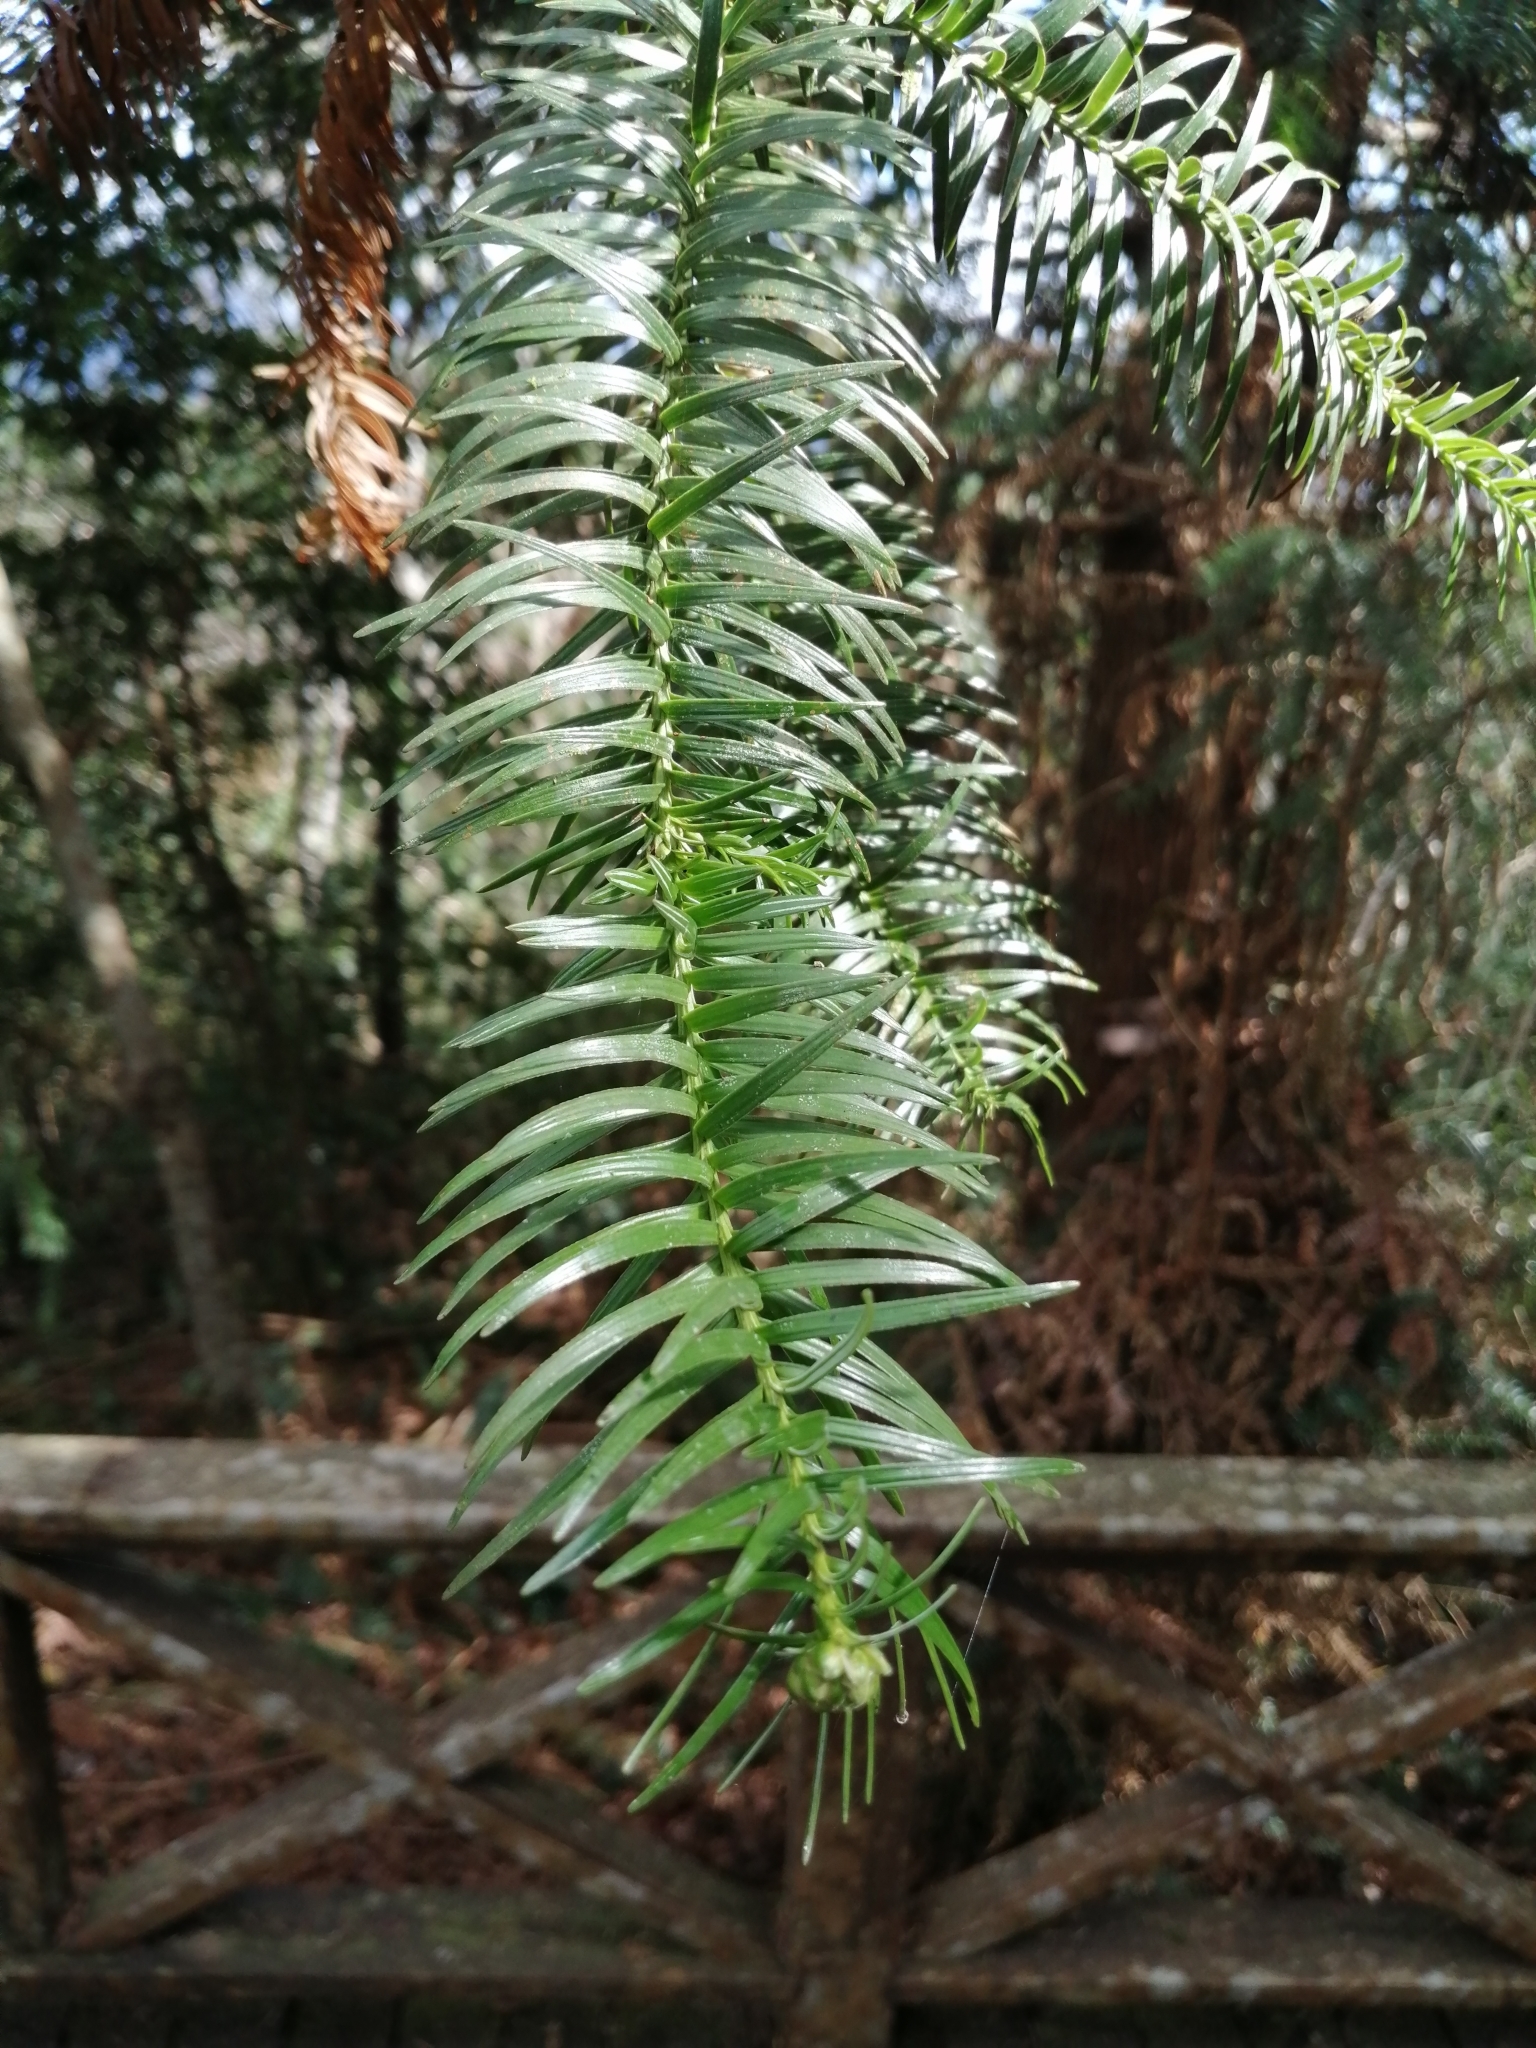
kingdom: Plantae
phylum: Tracheophyta
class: Pinopsida
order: Pinales
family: Cupressaceae
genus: Cunninghamia
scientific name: Cunninghamia lanceolata
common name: Chinese fir
